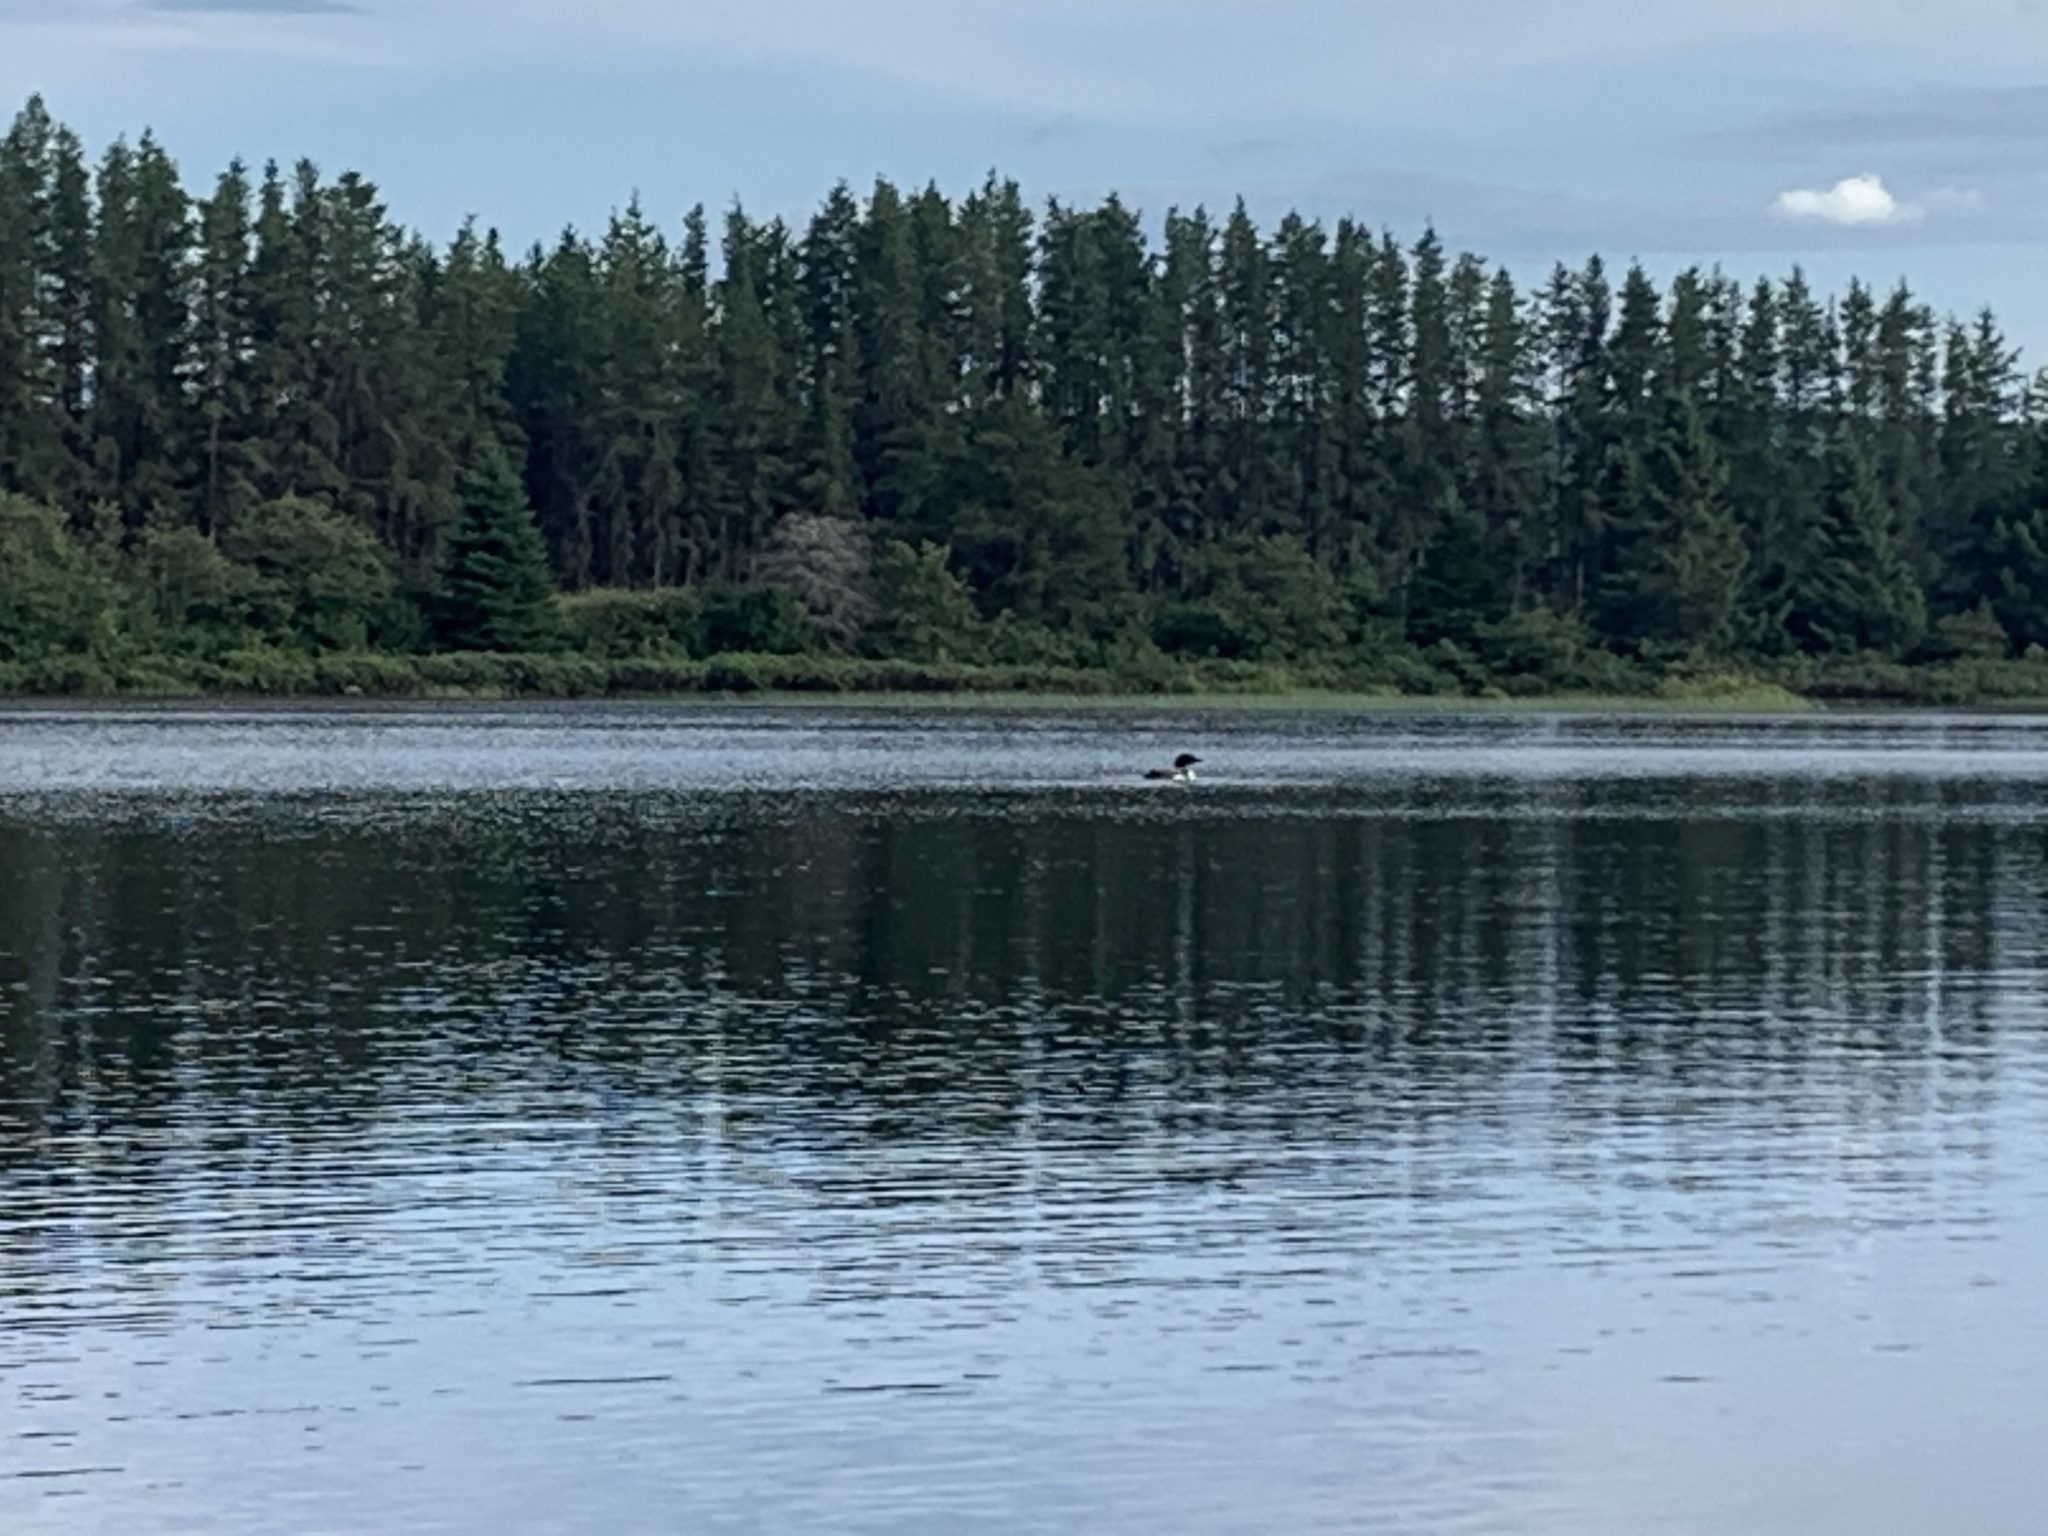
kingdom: Animalia
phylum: Chordata
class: Aves
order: Gaviiformes
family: Gaviidae
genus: Gavia
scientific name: Gavia immer
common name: Common loon
